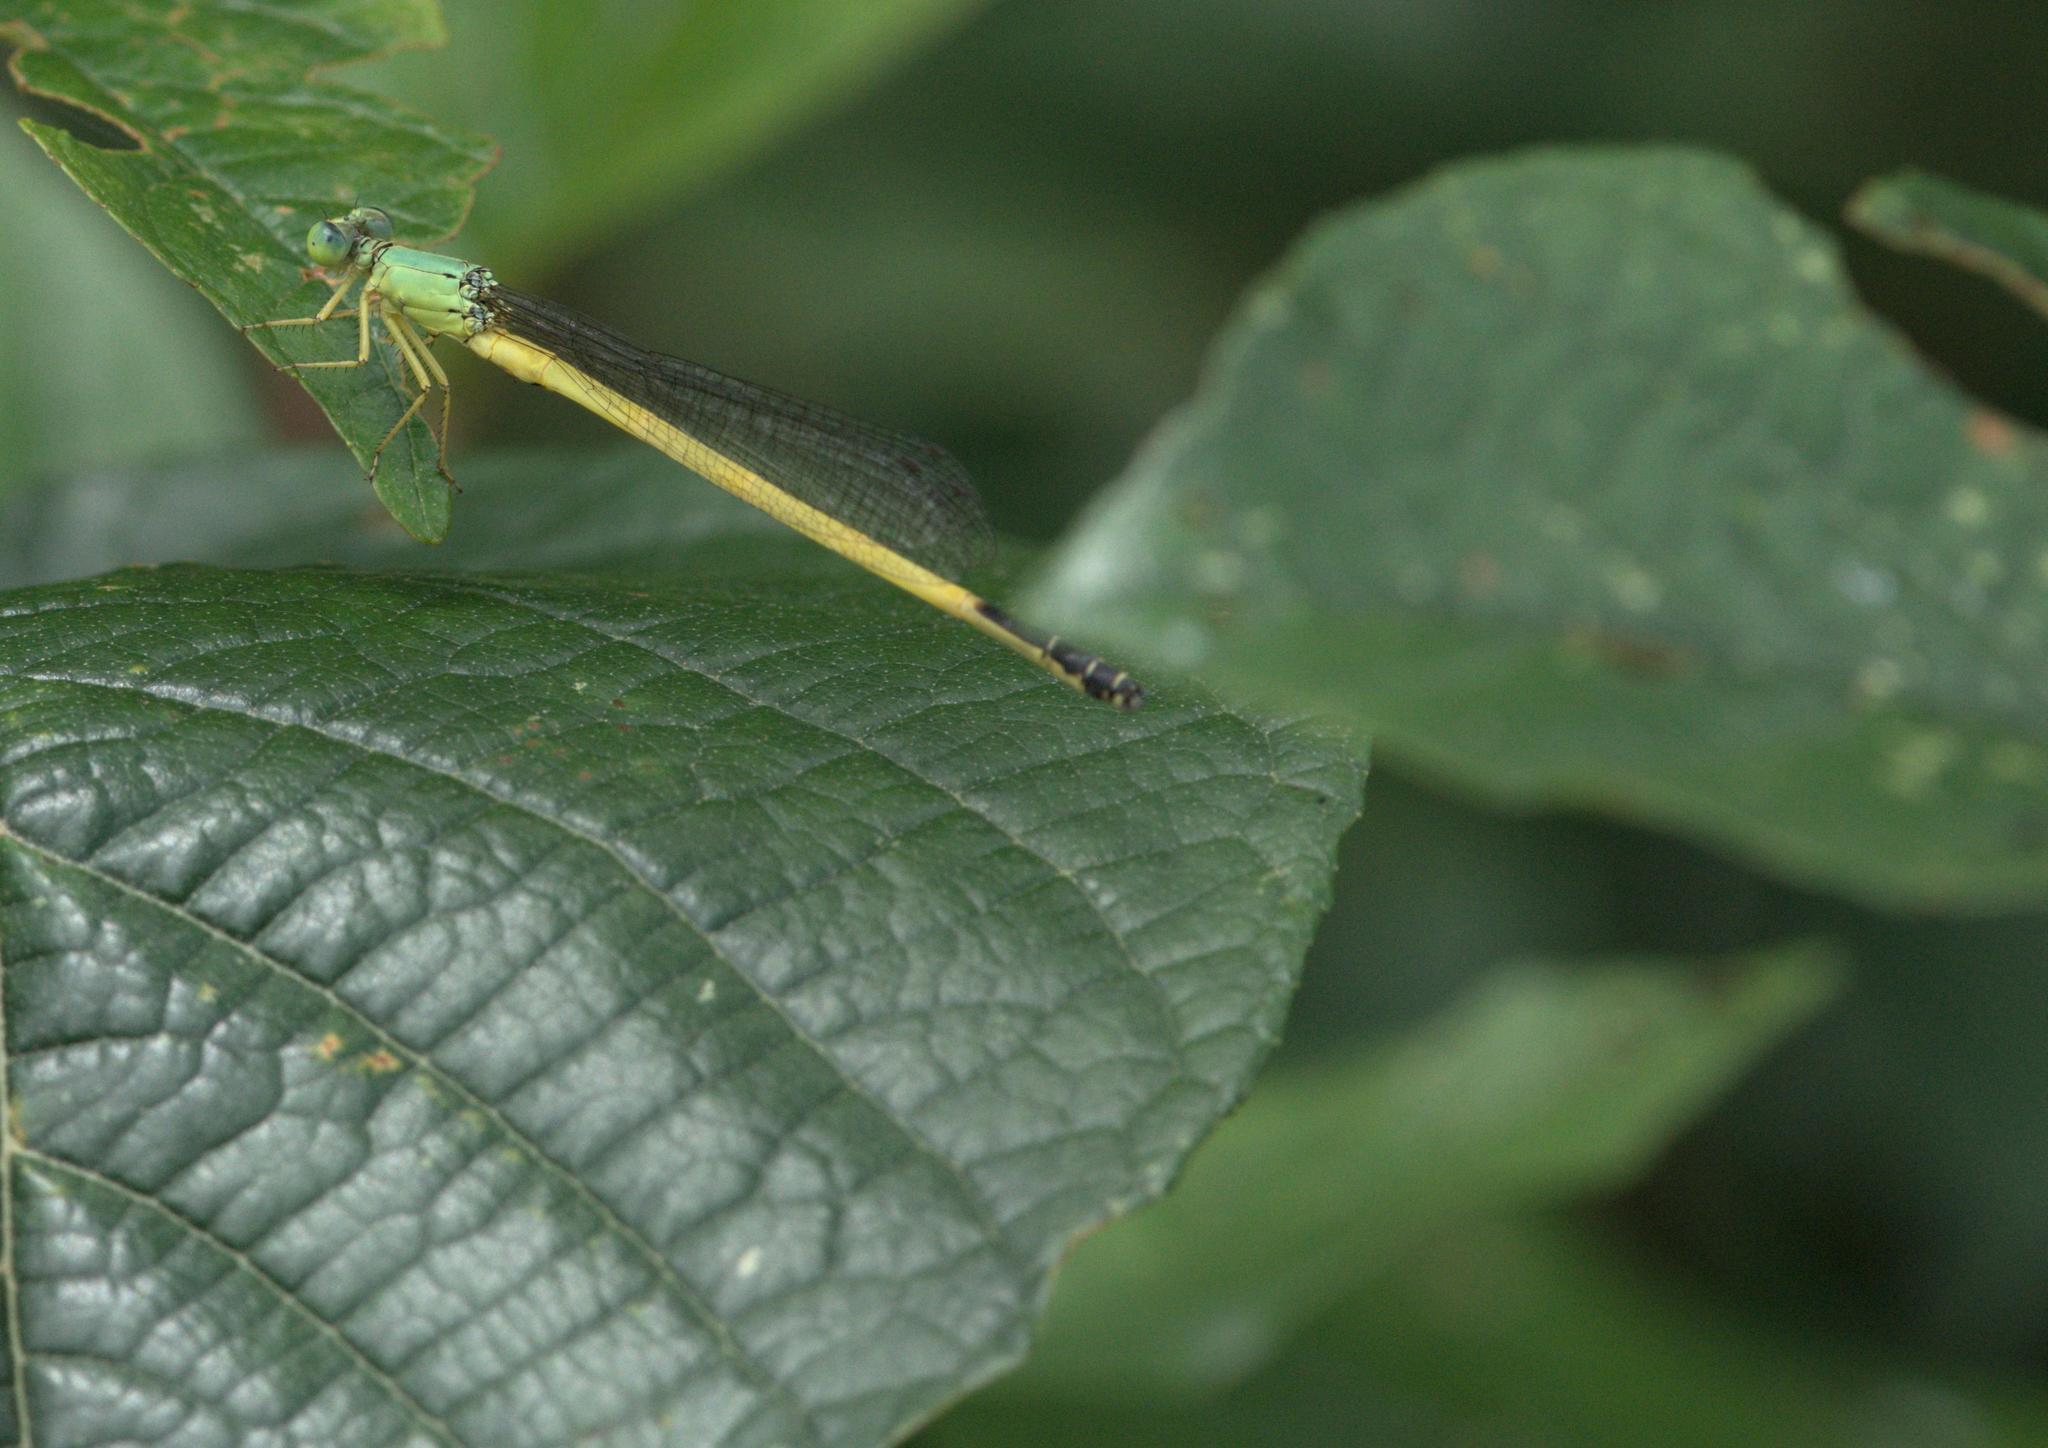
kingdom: Animalia
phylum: Arthropoda
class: Insecta
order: Odonata
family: Coenagrionidae
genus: Ceriagrion
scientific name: Ceriagrion fallax
